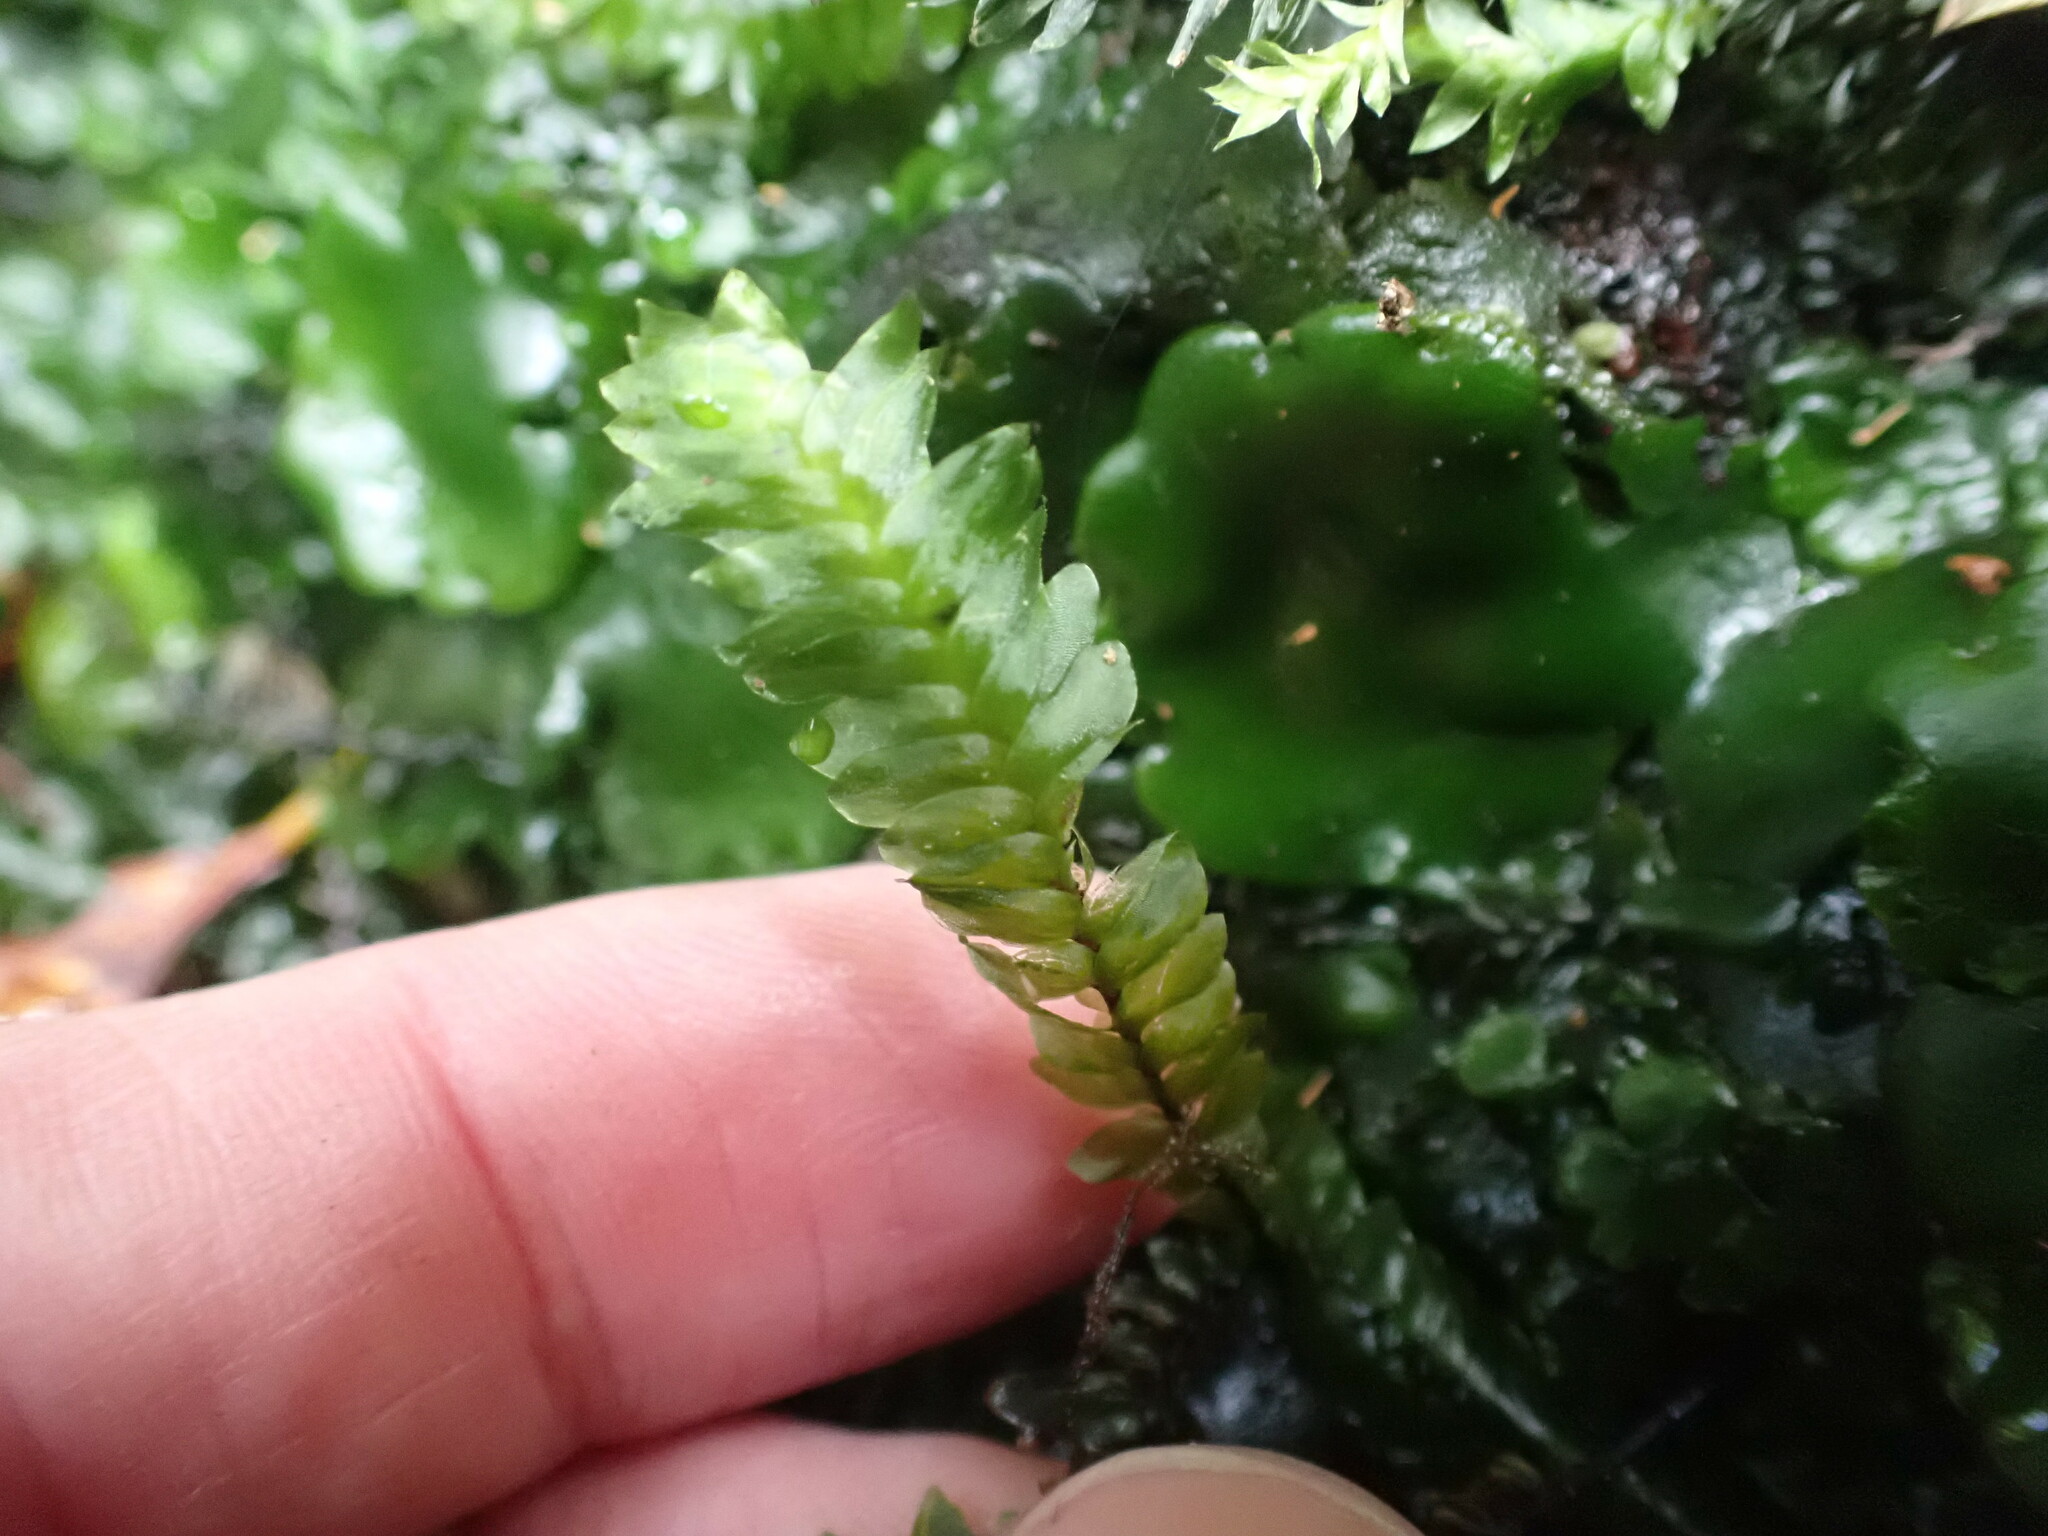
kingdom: Plantae
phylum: Bryophyta
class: Bryopsida
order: Hypopterygiales
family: Hypopterygiaceae
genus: Cyathophorum
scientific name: Cyathophorum bulbosum
